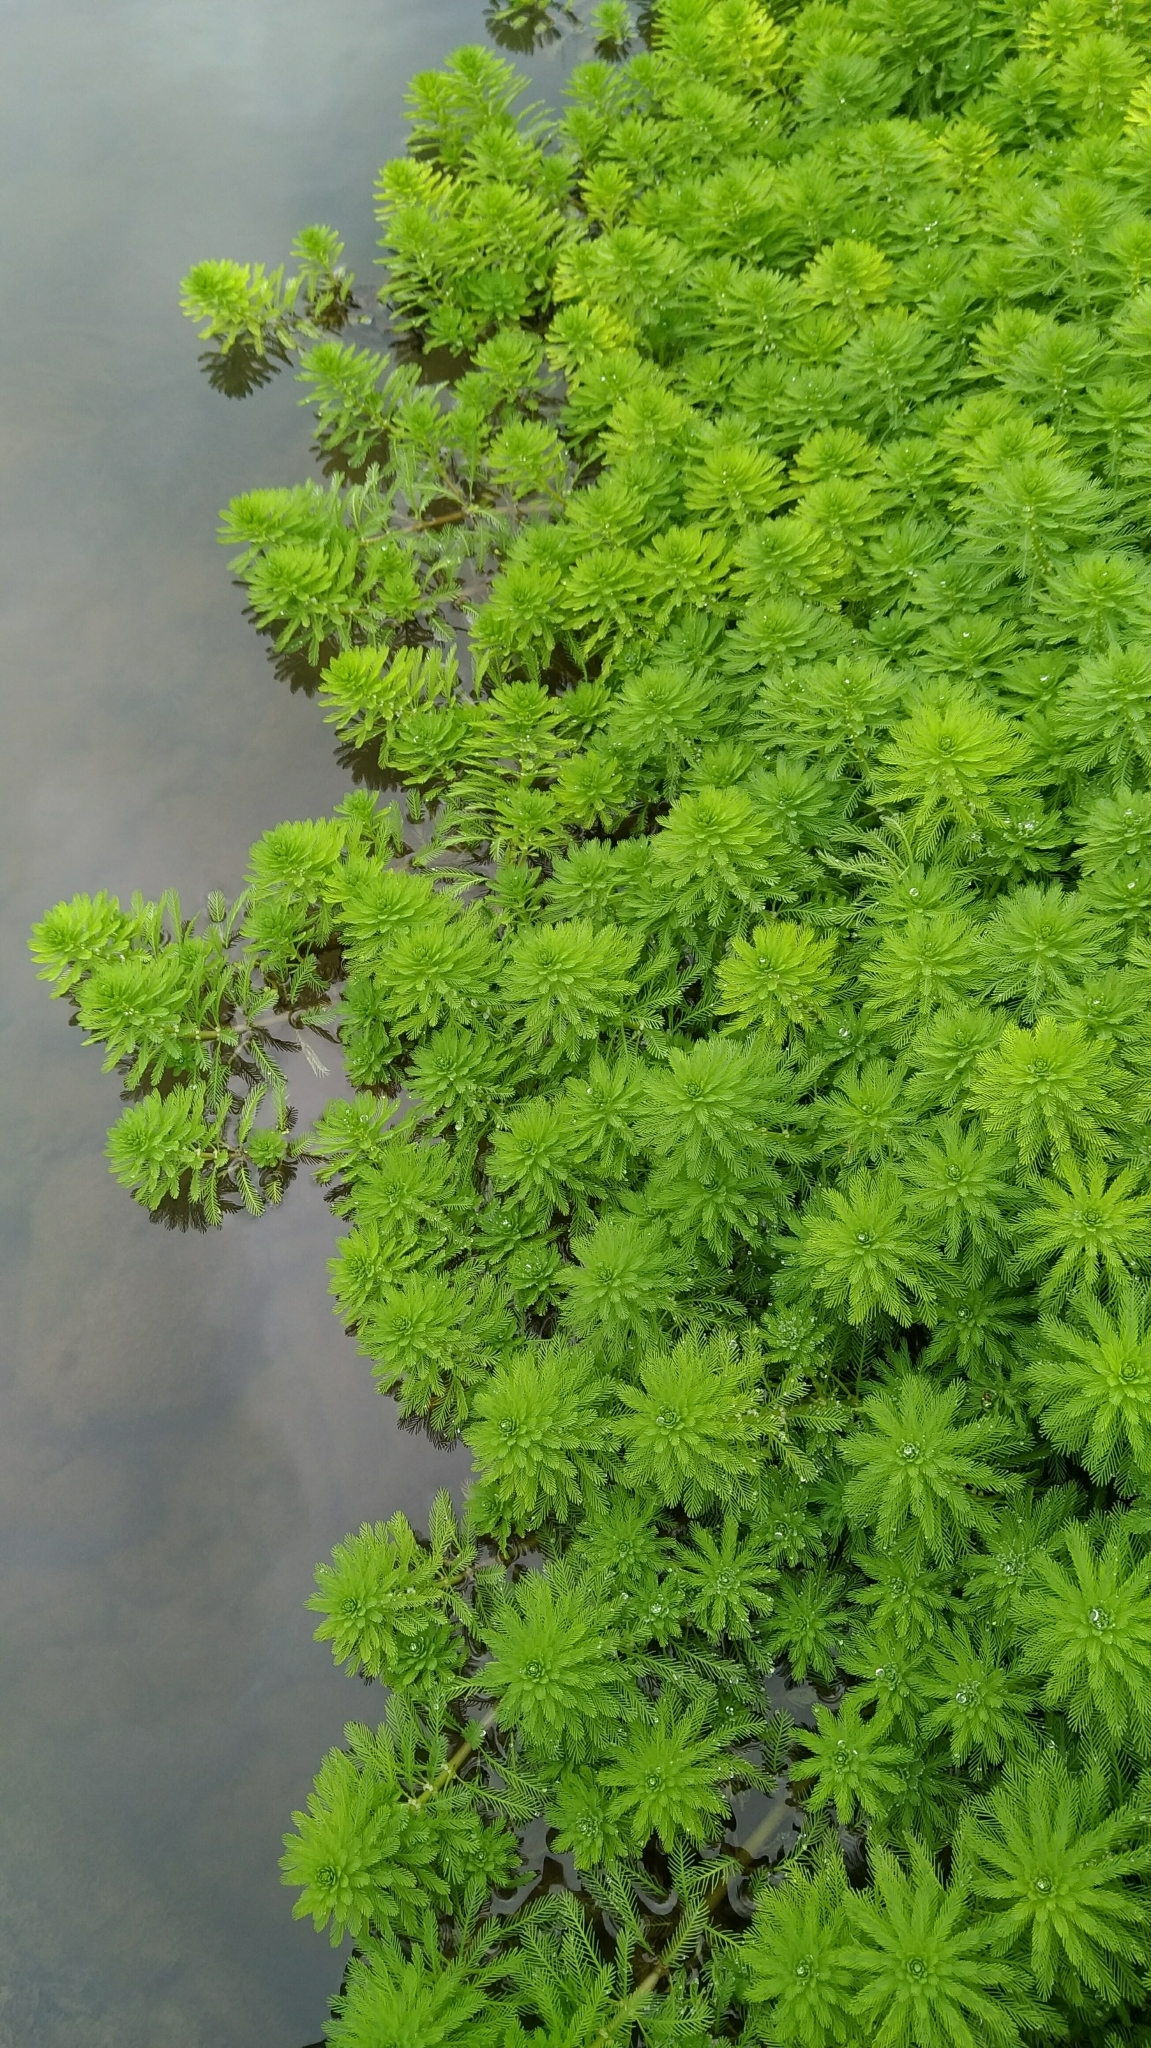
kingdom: Plantae
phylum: Tracheophyta
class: Magnoliopsida
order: Saxifragales
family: Haloragaceae
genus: Myriophyllum
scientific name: Myriophyllum aquaticum
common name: Parrot's feather
